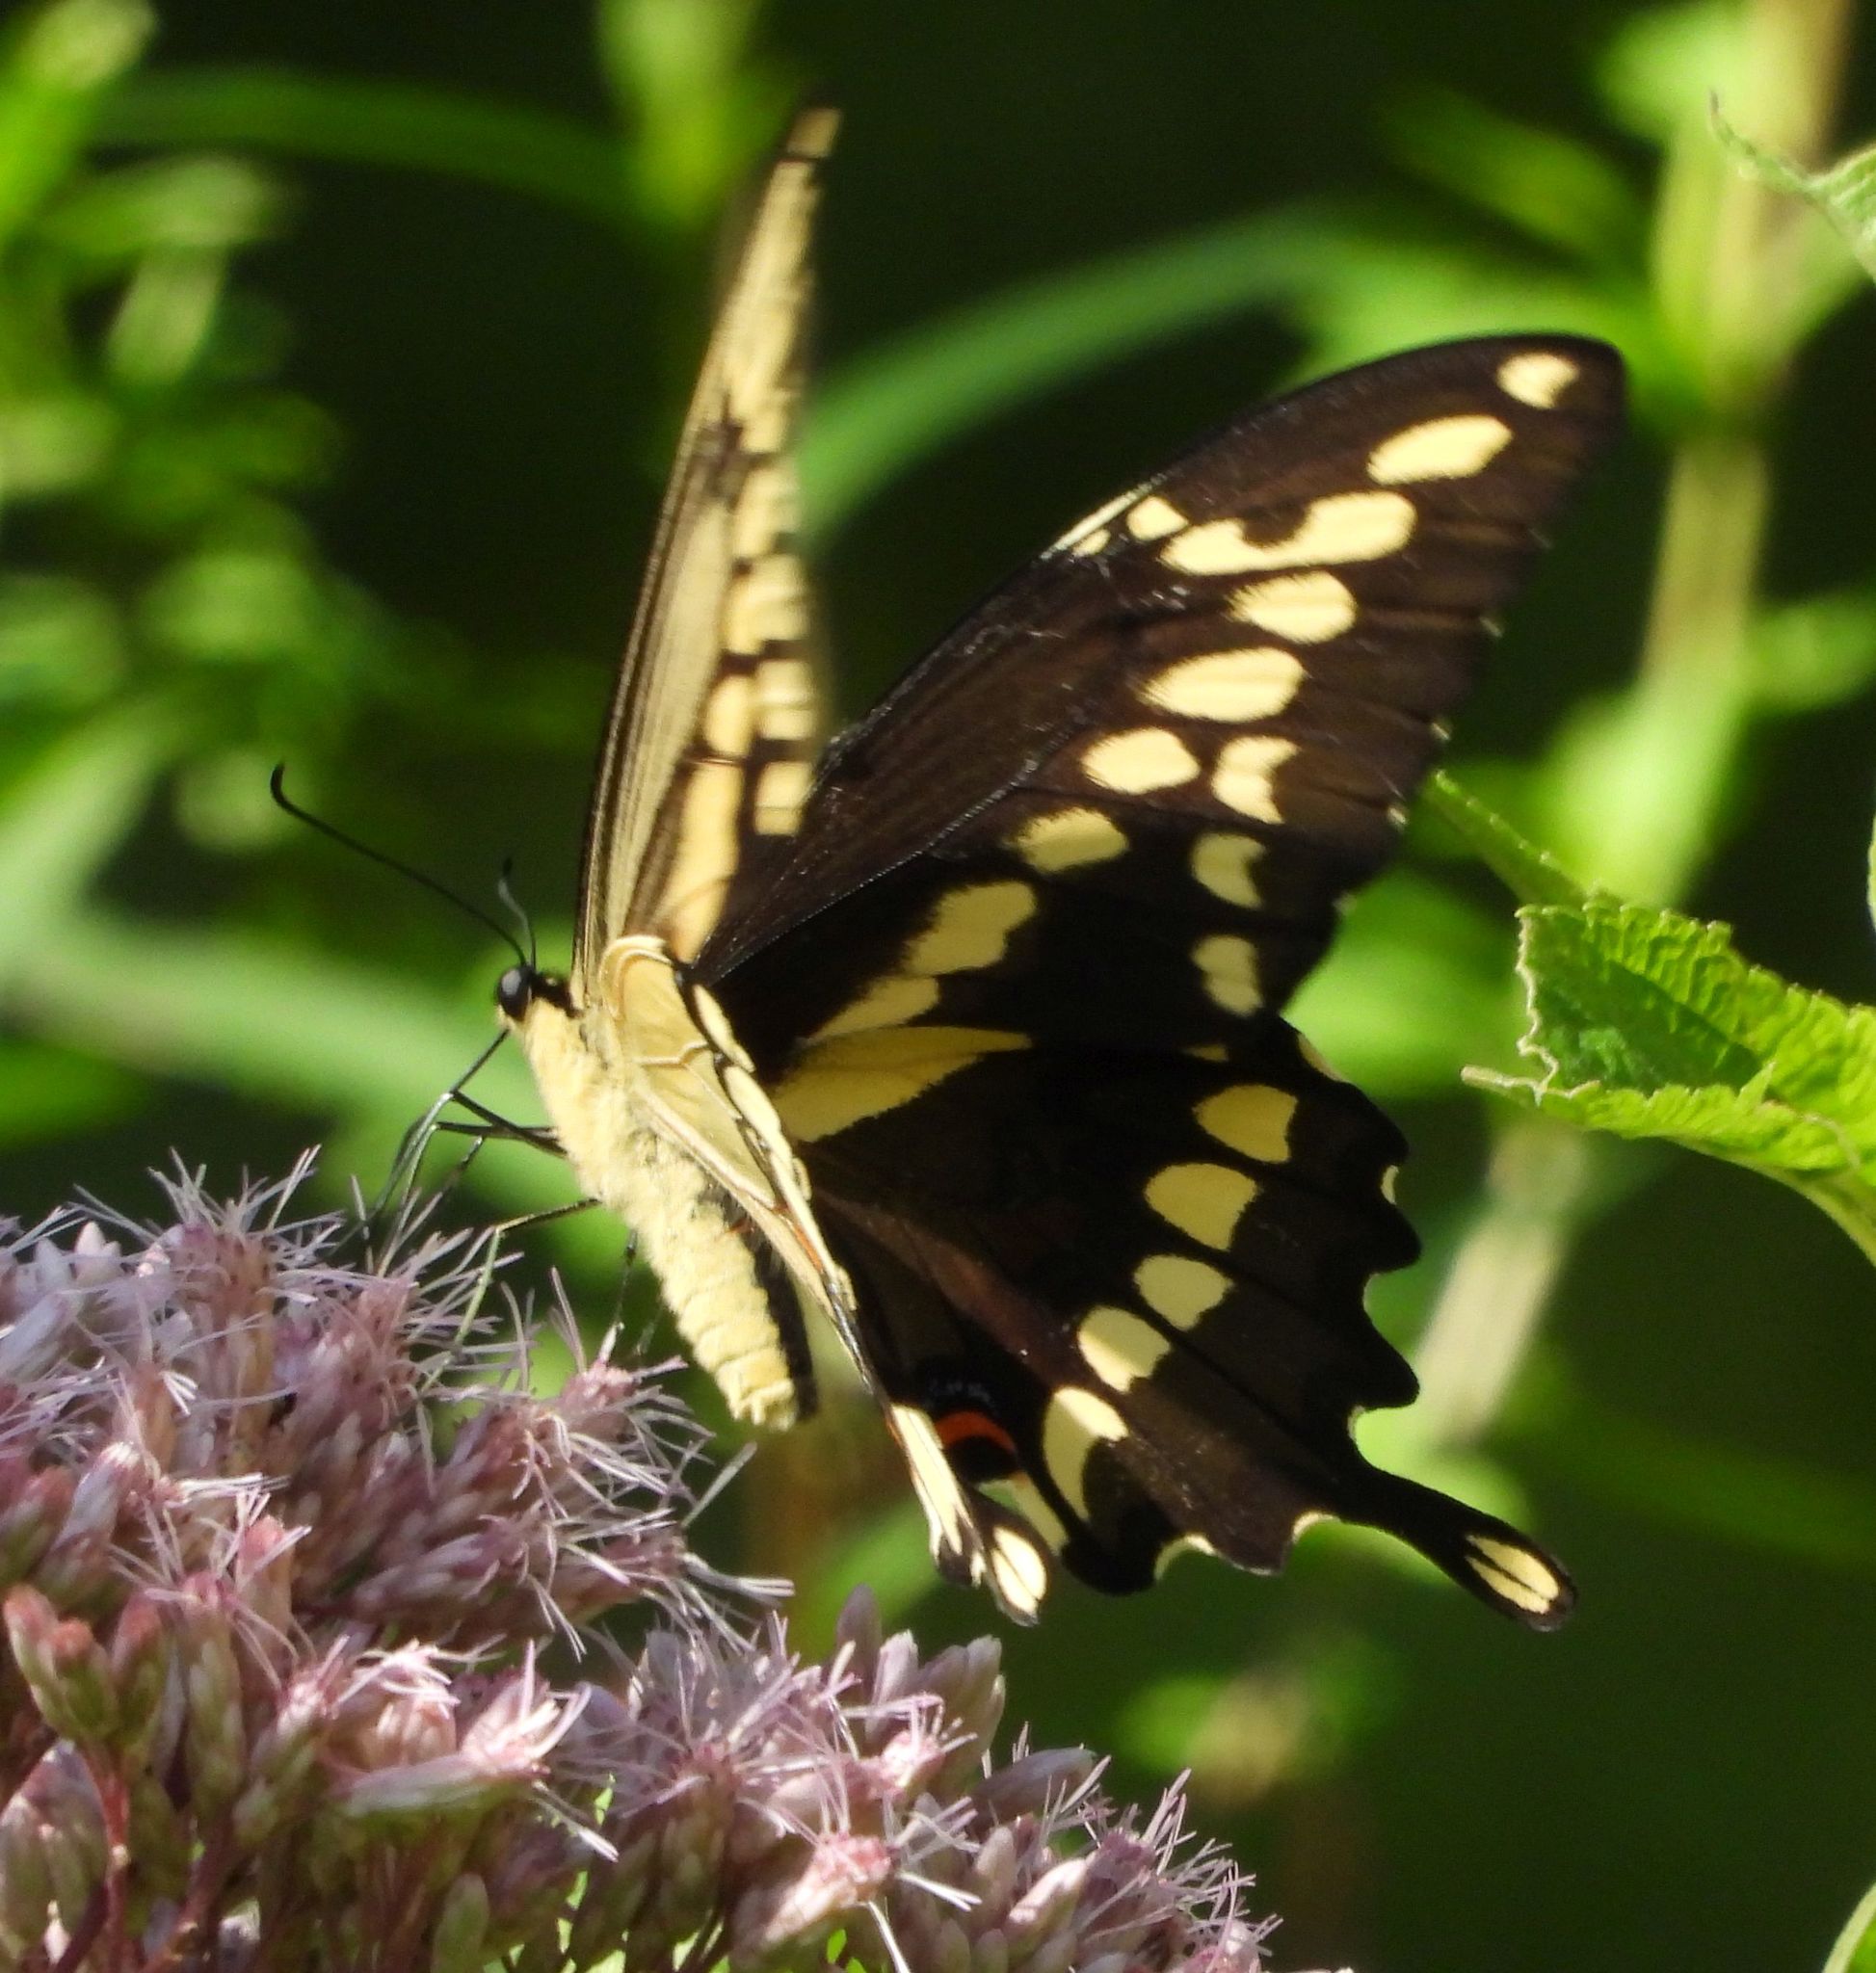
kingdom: Animalia
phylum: Arthropoda
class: Insecta
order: Lepidoptera
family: Papilionidae
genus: Papilio
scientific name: Papilio cresphontes
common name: Giant swallowtail
